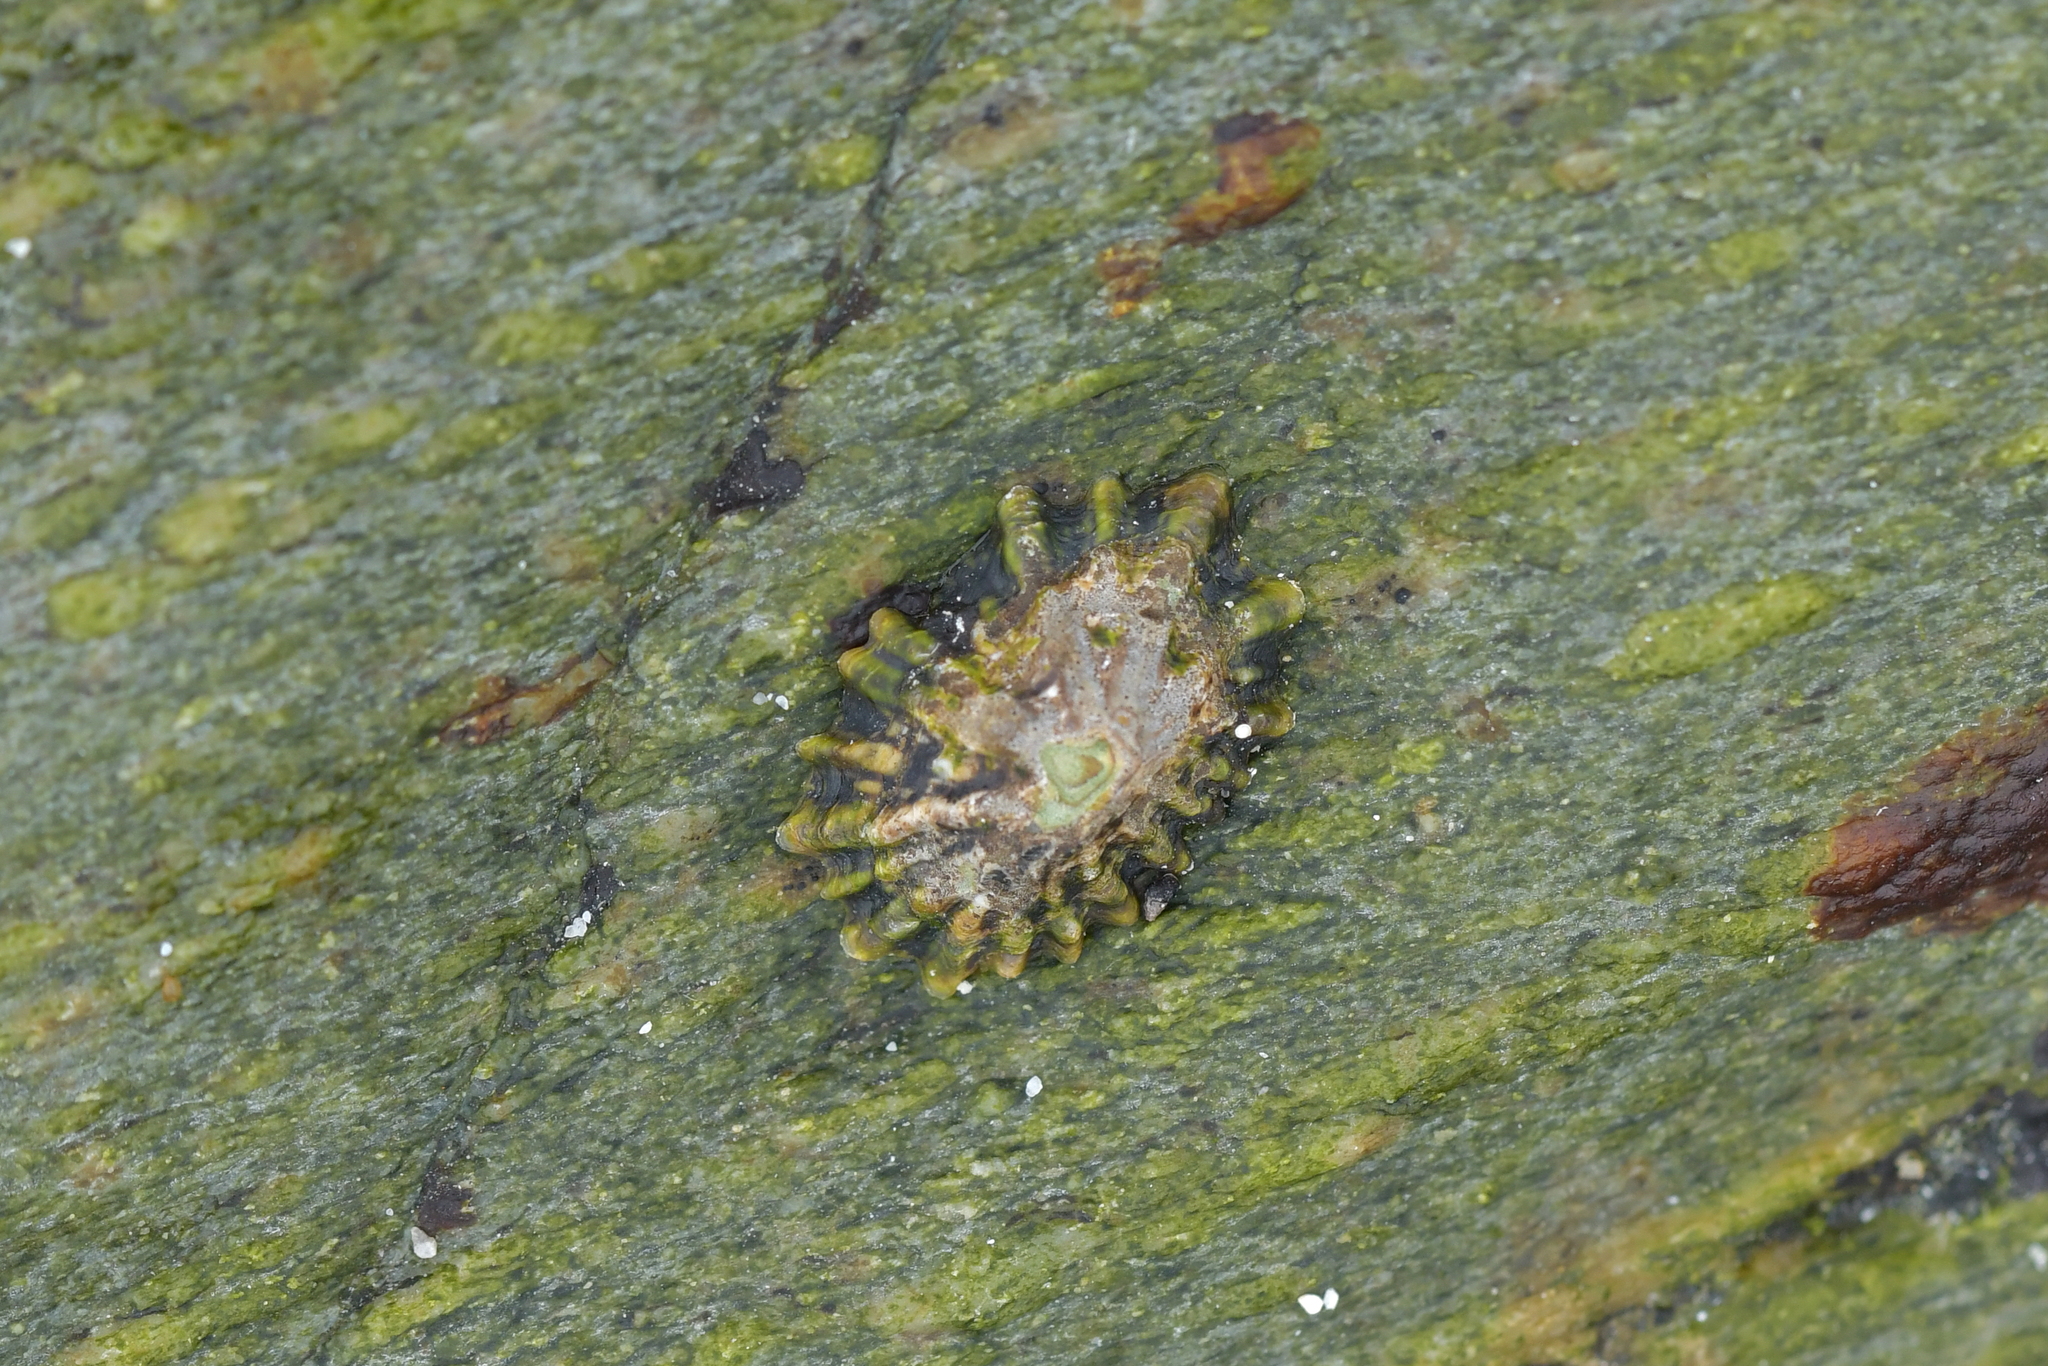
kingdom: Animalia
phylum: Mollusca
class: Gastropoda
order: Siphonariida
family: Siphonariidae
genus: Siphonaria
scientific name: Siphonaria australis
